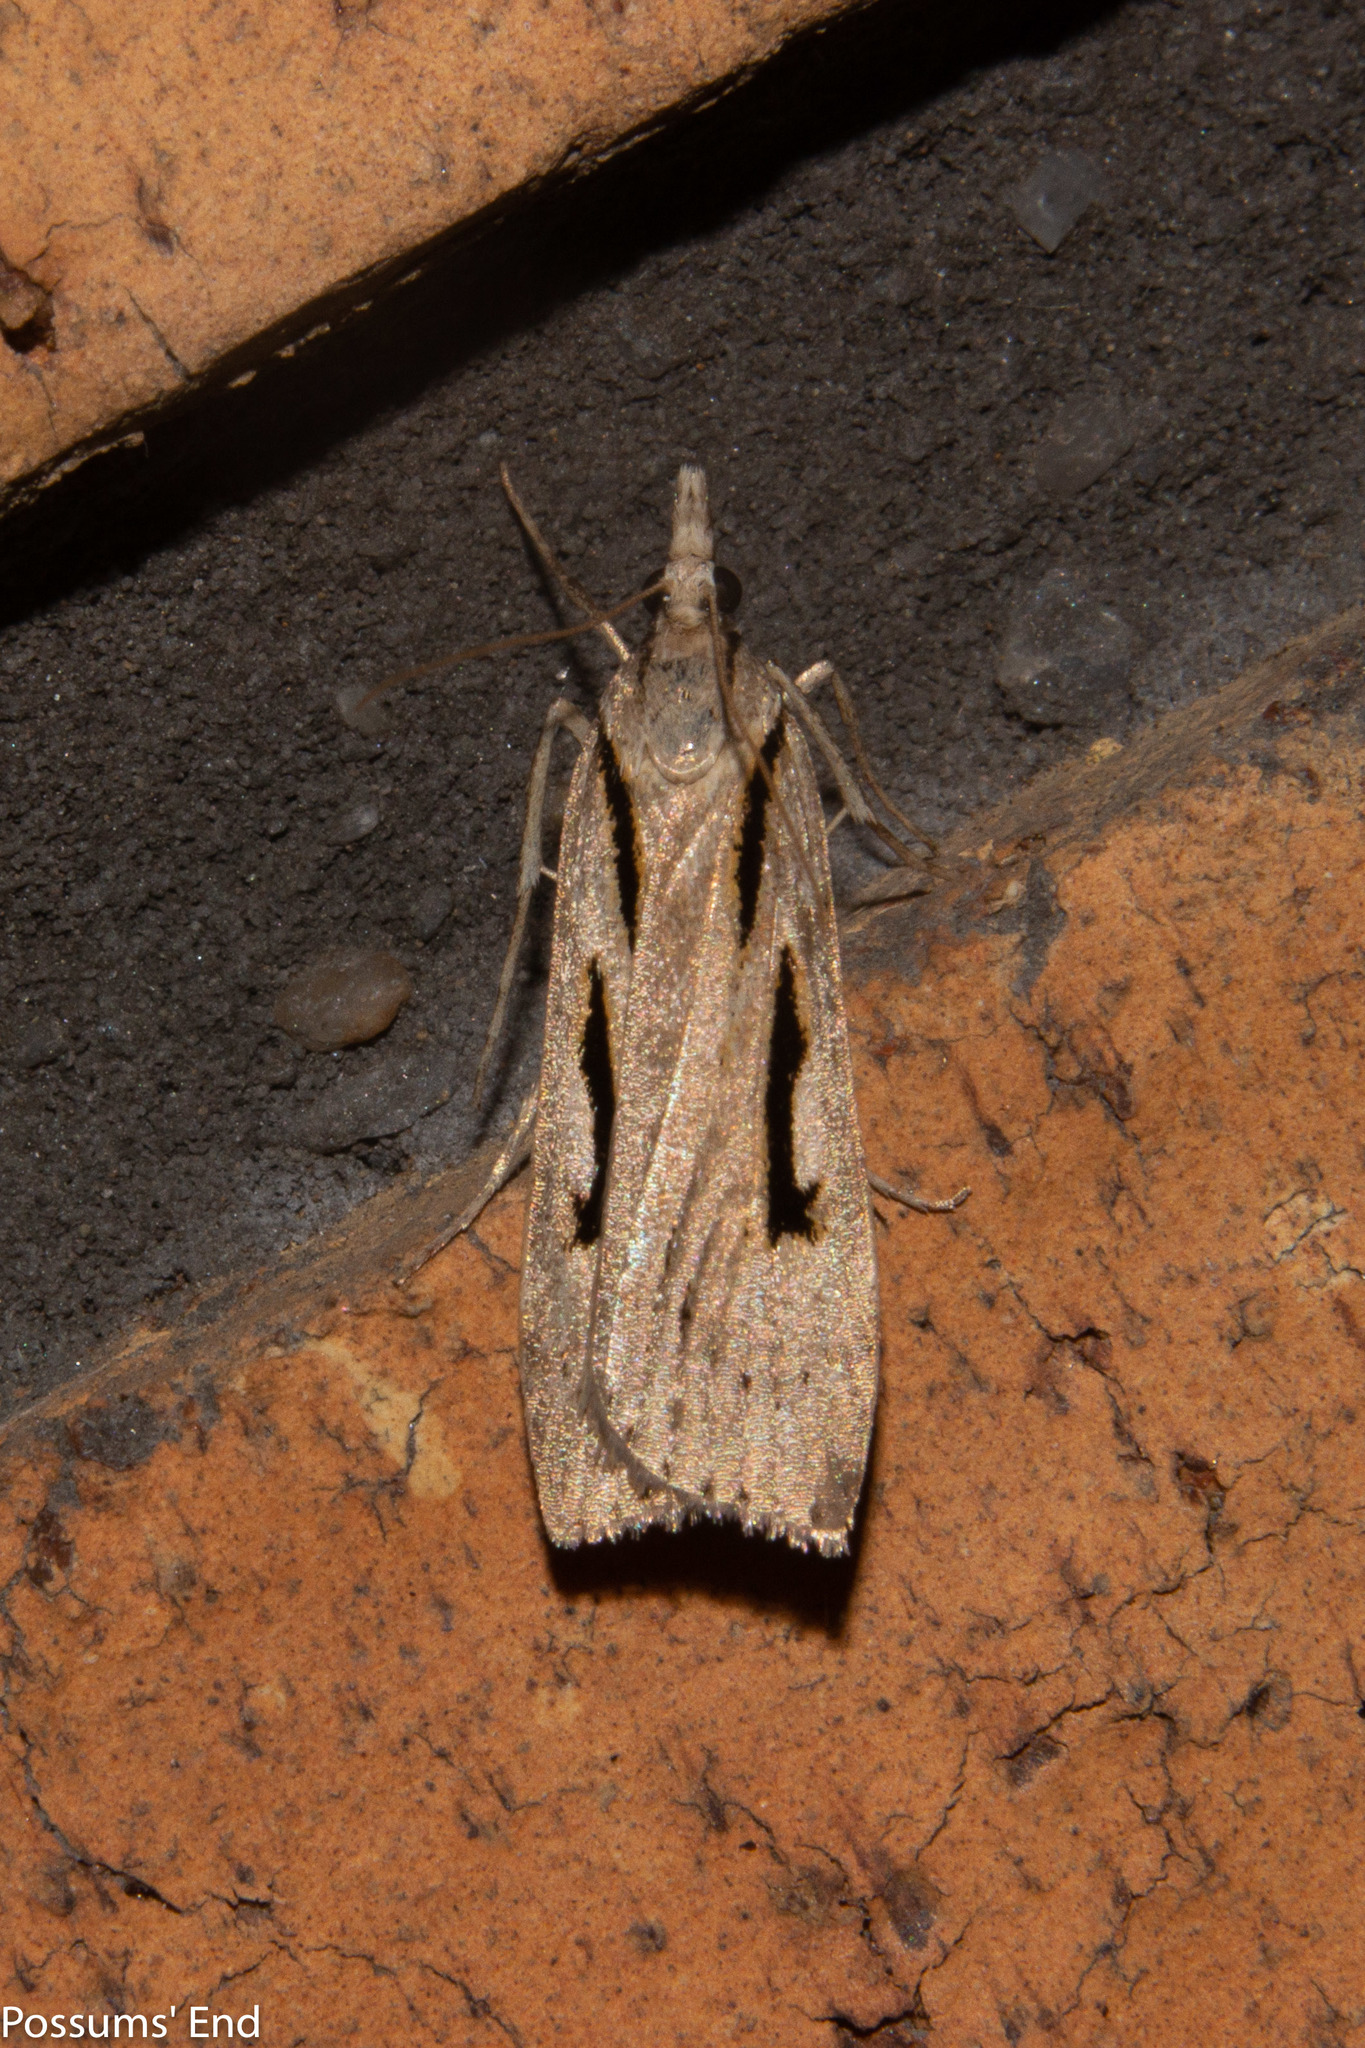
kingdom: Animalia
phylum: Arthropoda
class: Insecta
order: Lepidoptera
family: Crambidae
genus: Scoparia
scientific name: Scoparia rotuellus
